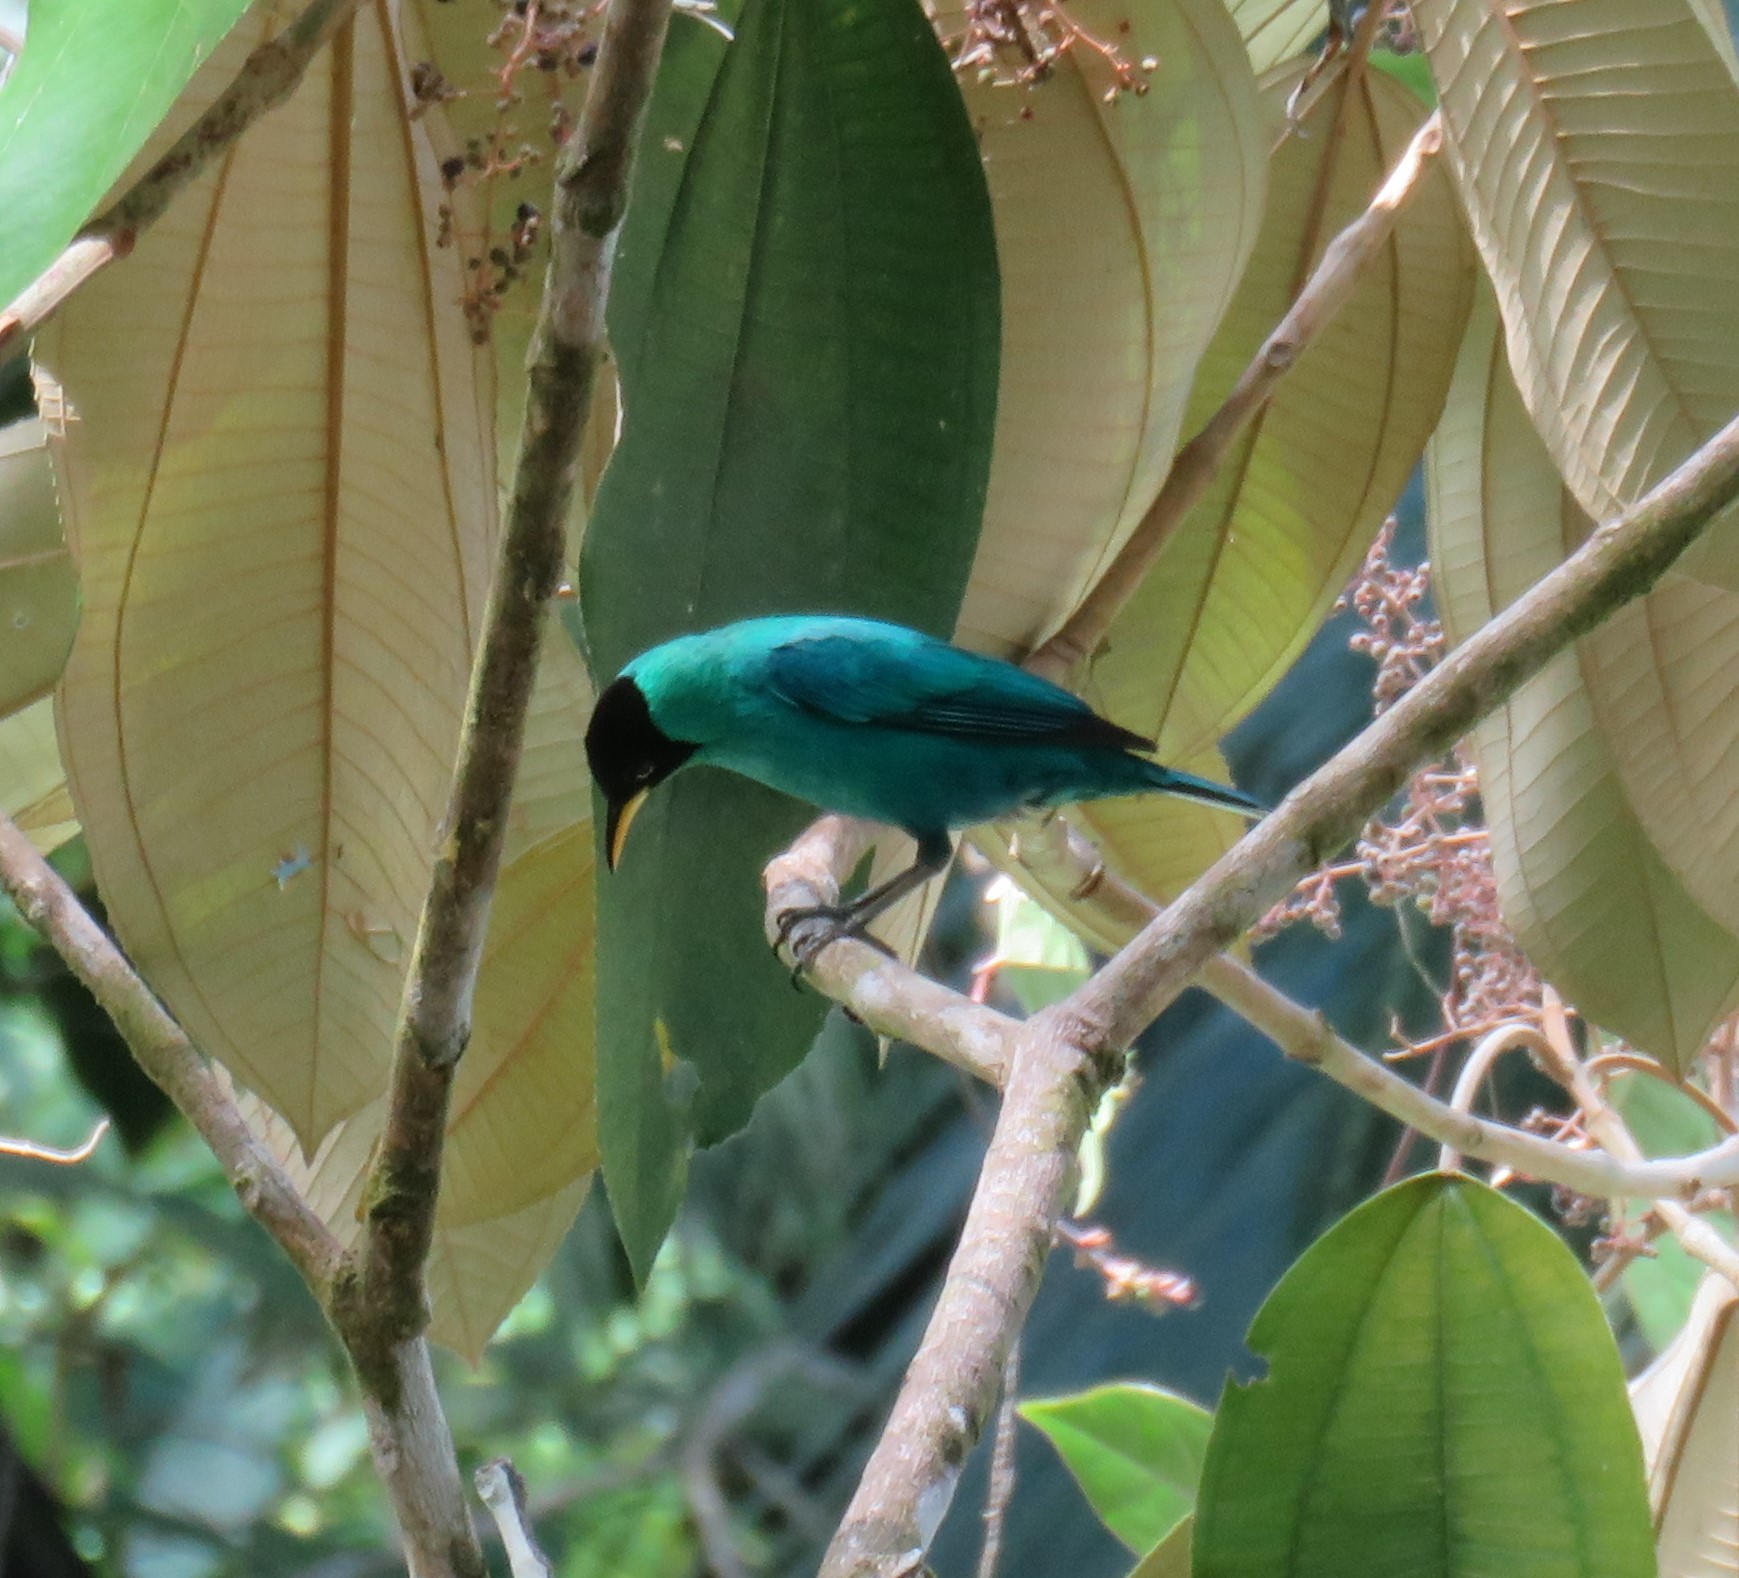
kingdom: Animalia
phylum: Chordata
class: Aves
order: Passeriformes
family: Thraupidae
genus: Chlorophanes
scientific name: Chlorophanes spiza
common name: Green honeycreeper
